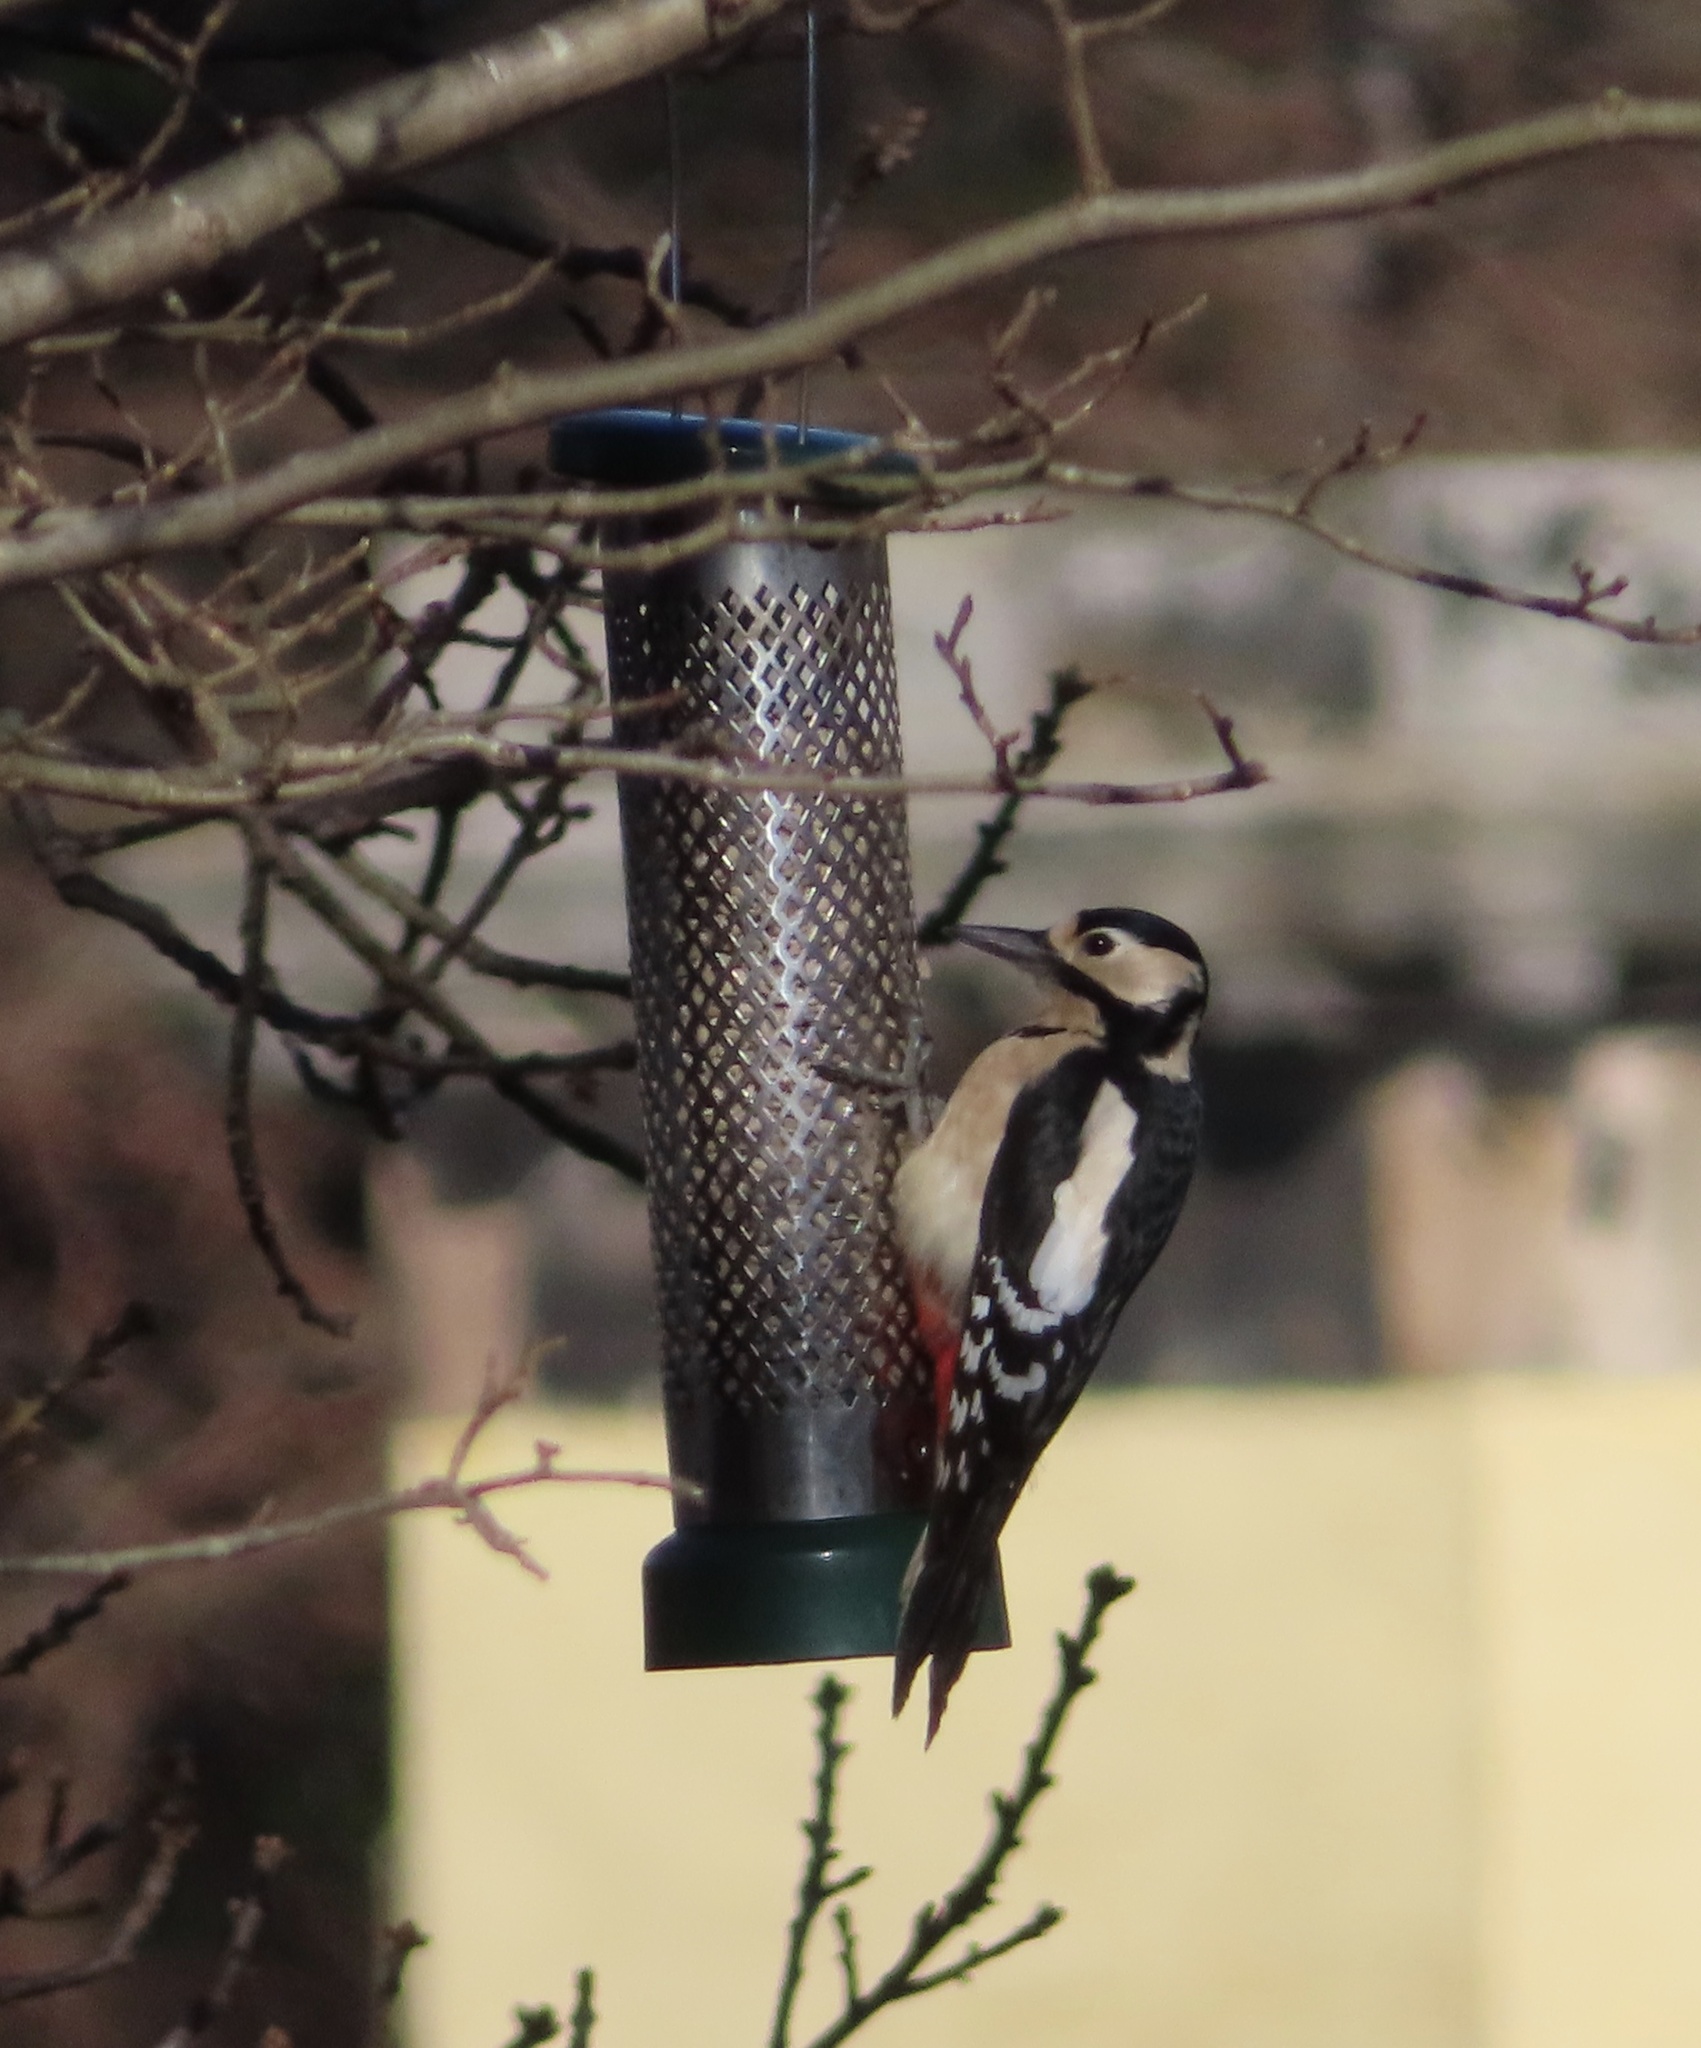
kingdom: Animalia
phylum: Chordata
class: Aves
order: Piciformes
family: Picidae
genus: Dendrocopos
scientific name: Dendrocopos major
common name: Great spotted woodpecker
